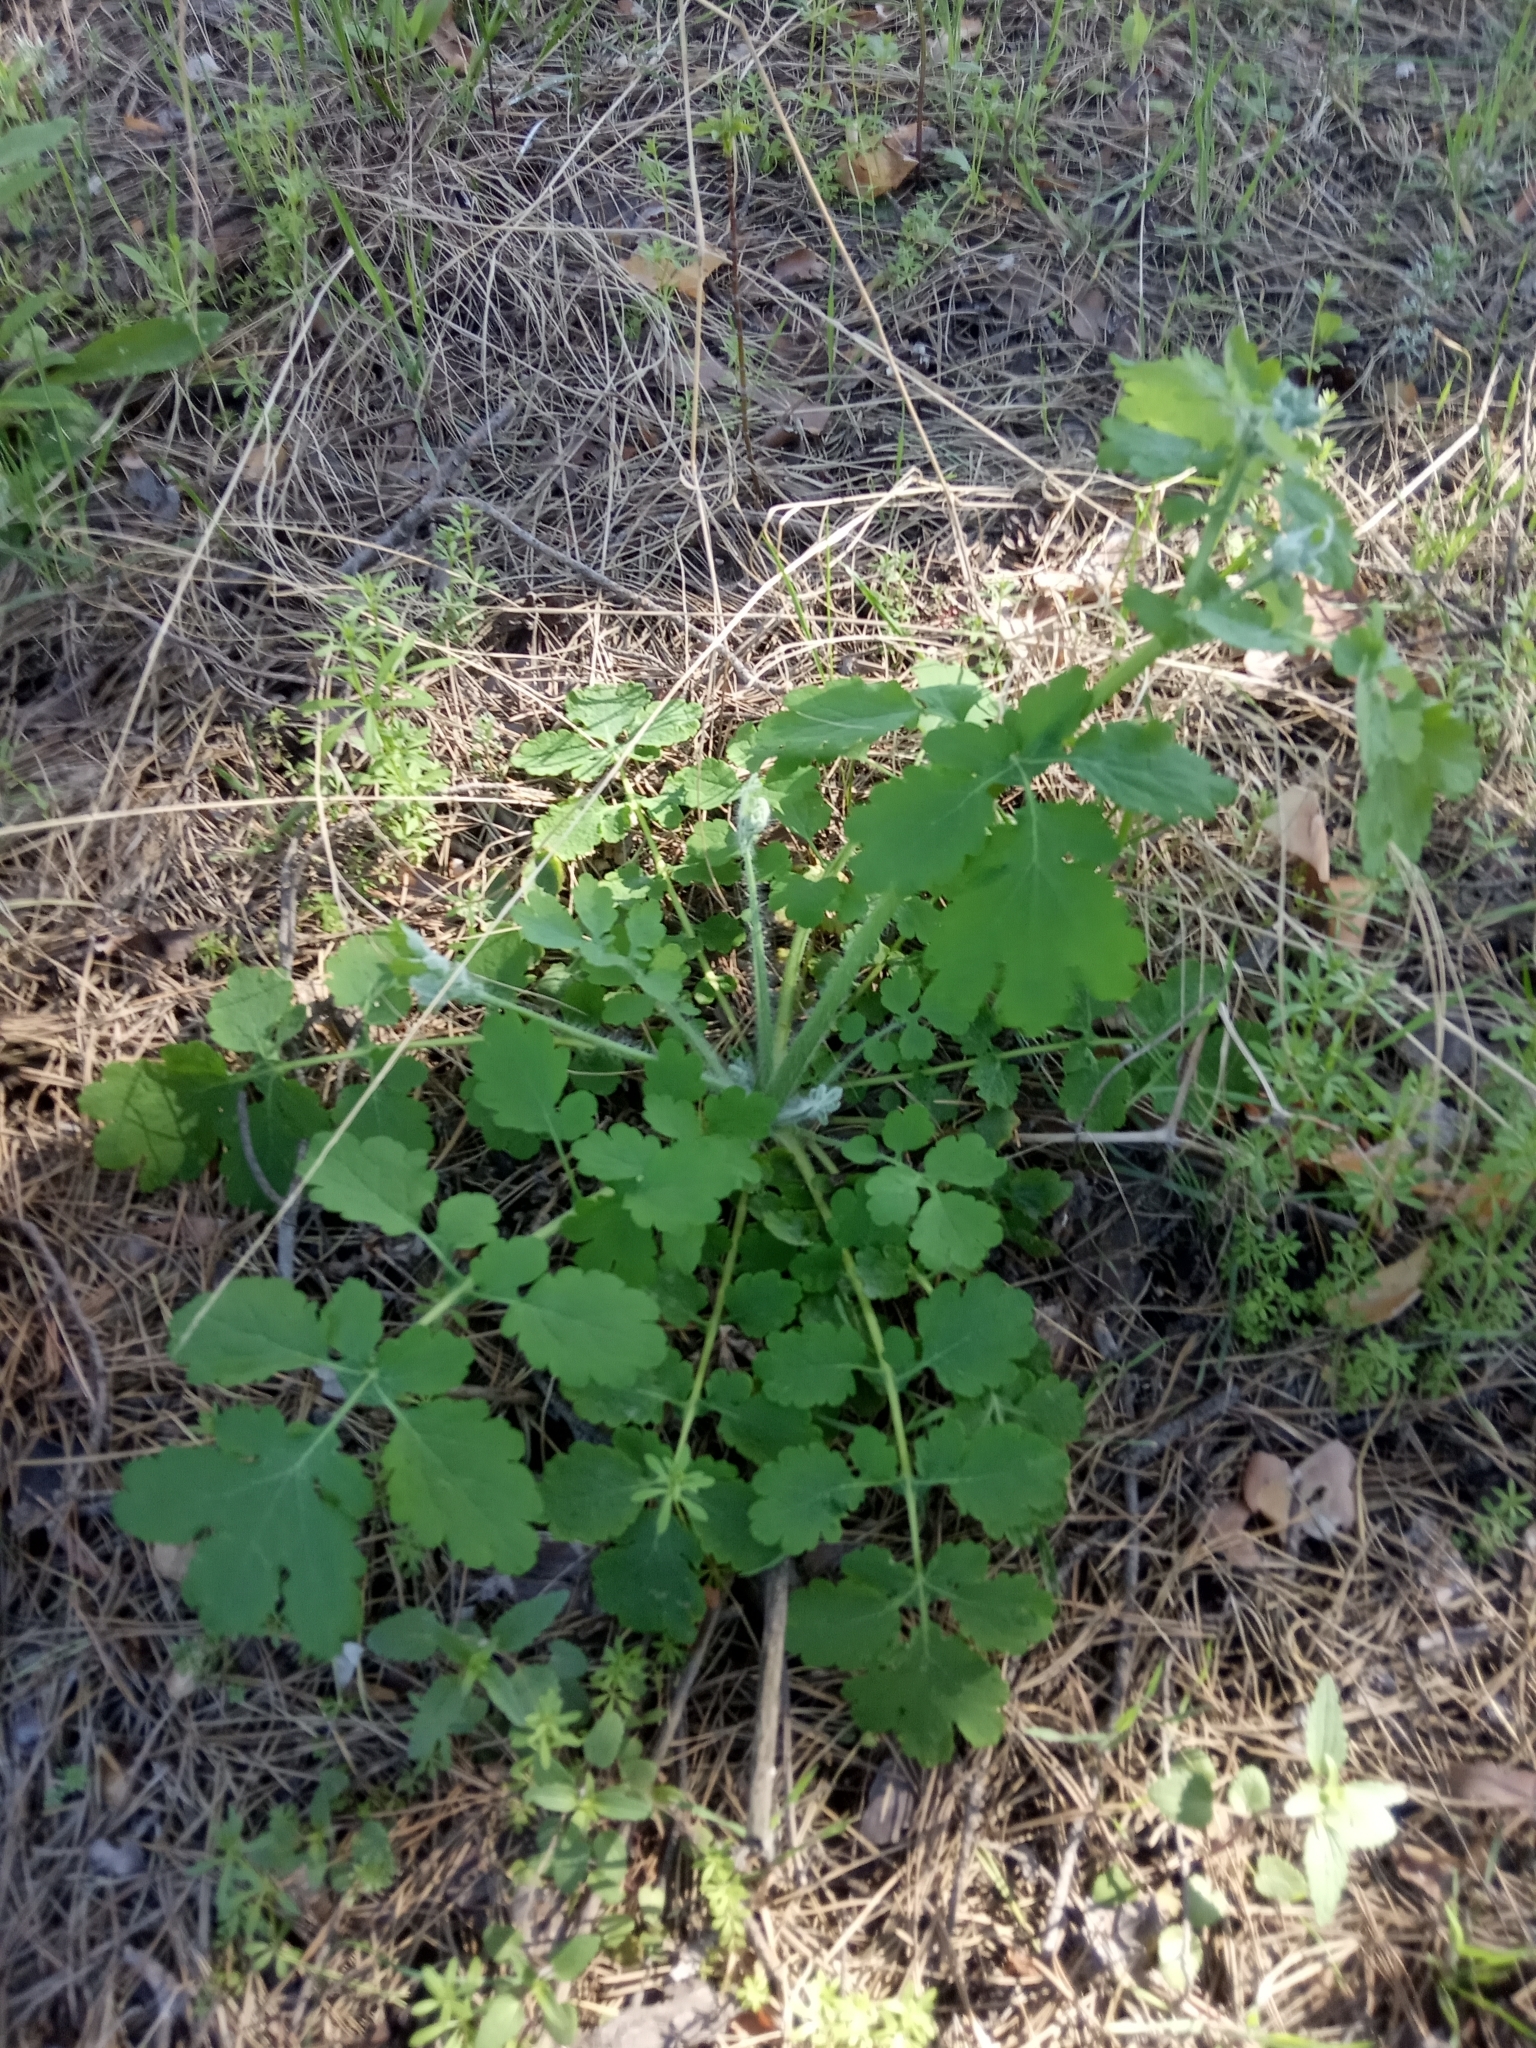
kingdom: Plantae
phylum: Tracheophyta
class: Magnoliopsida
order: Ranunculales
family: Papaveraceae
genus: Chelidonium
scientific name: Chelidonium majus
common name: Greater celandine
